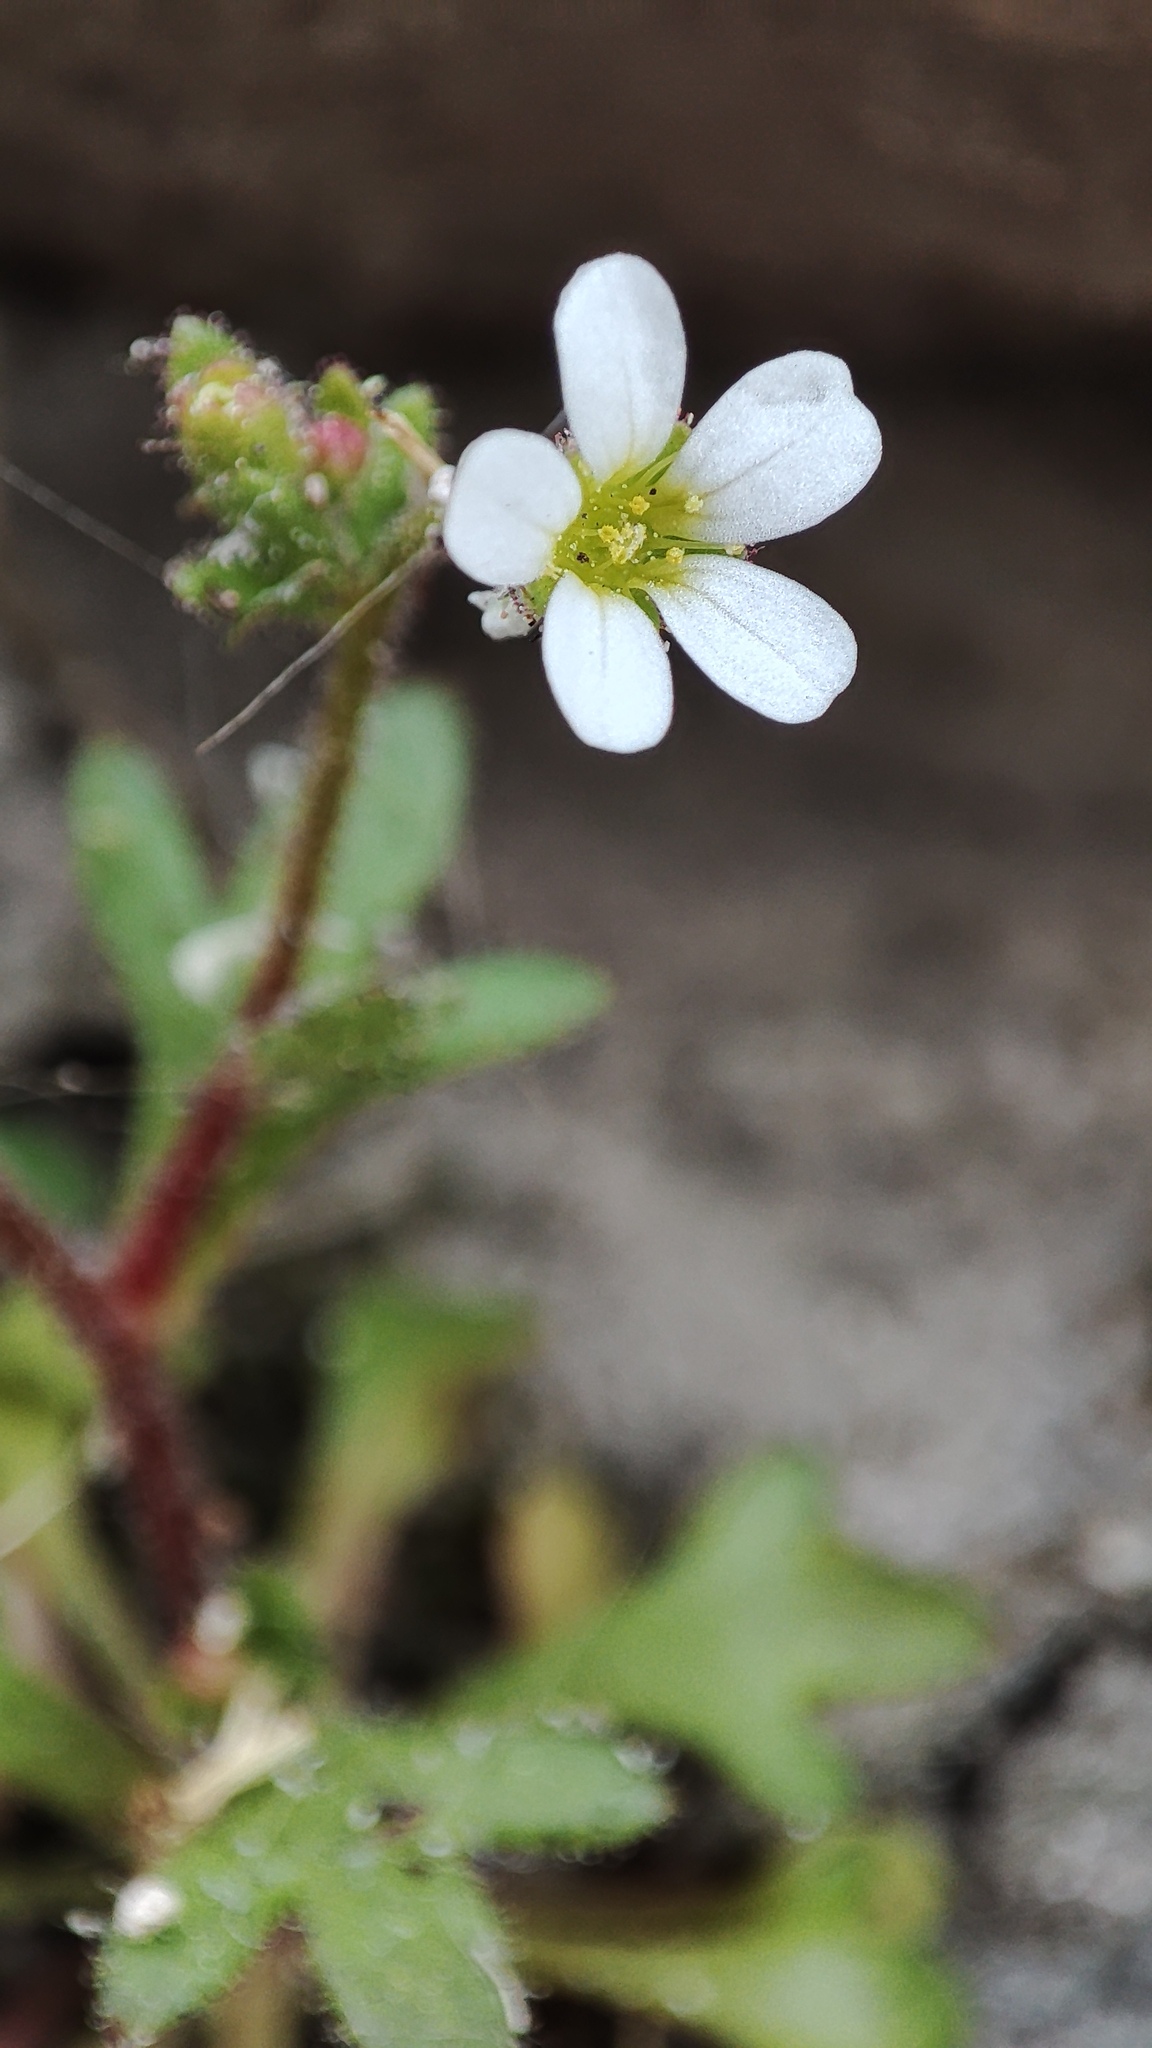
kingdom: Plantae
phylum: Tracheophyta
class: Magnoliopsida
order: Saxifragales
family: Saxifragaceae
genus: Saxifraga
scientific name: Saxifraga tridactylites
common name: Rue-leaved saxifrage
